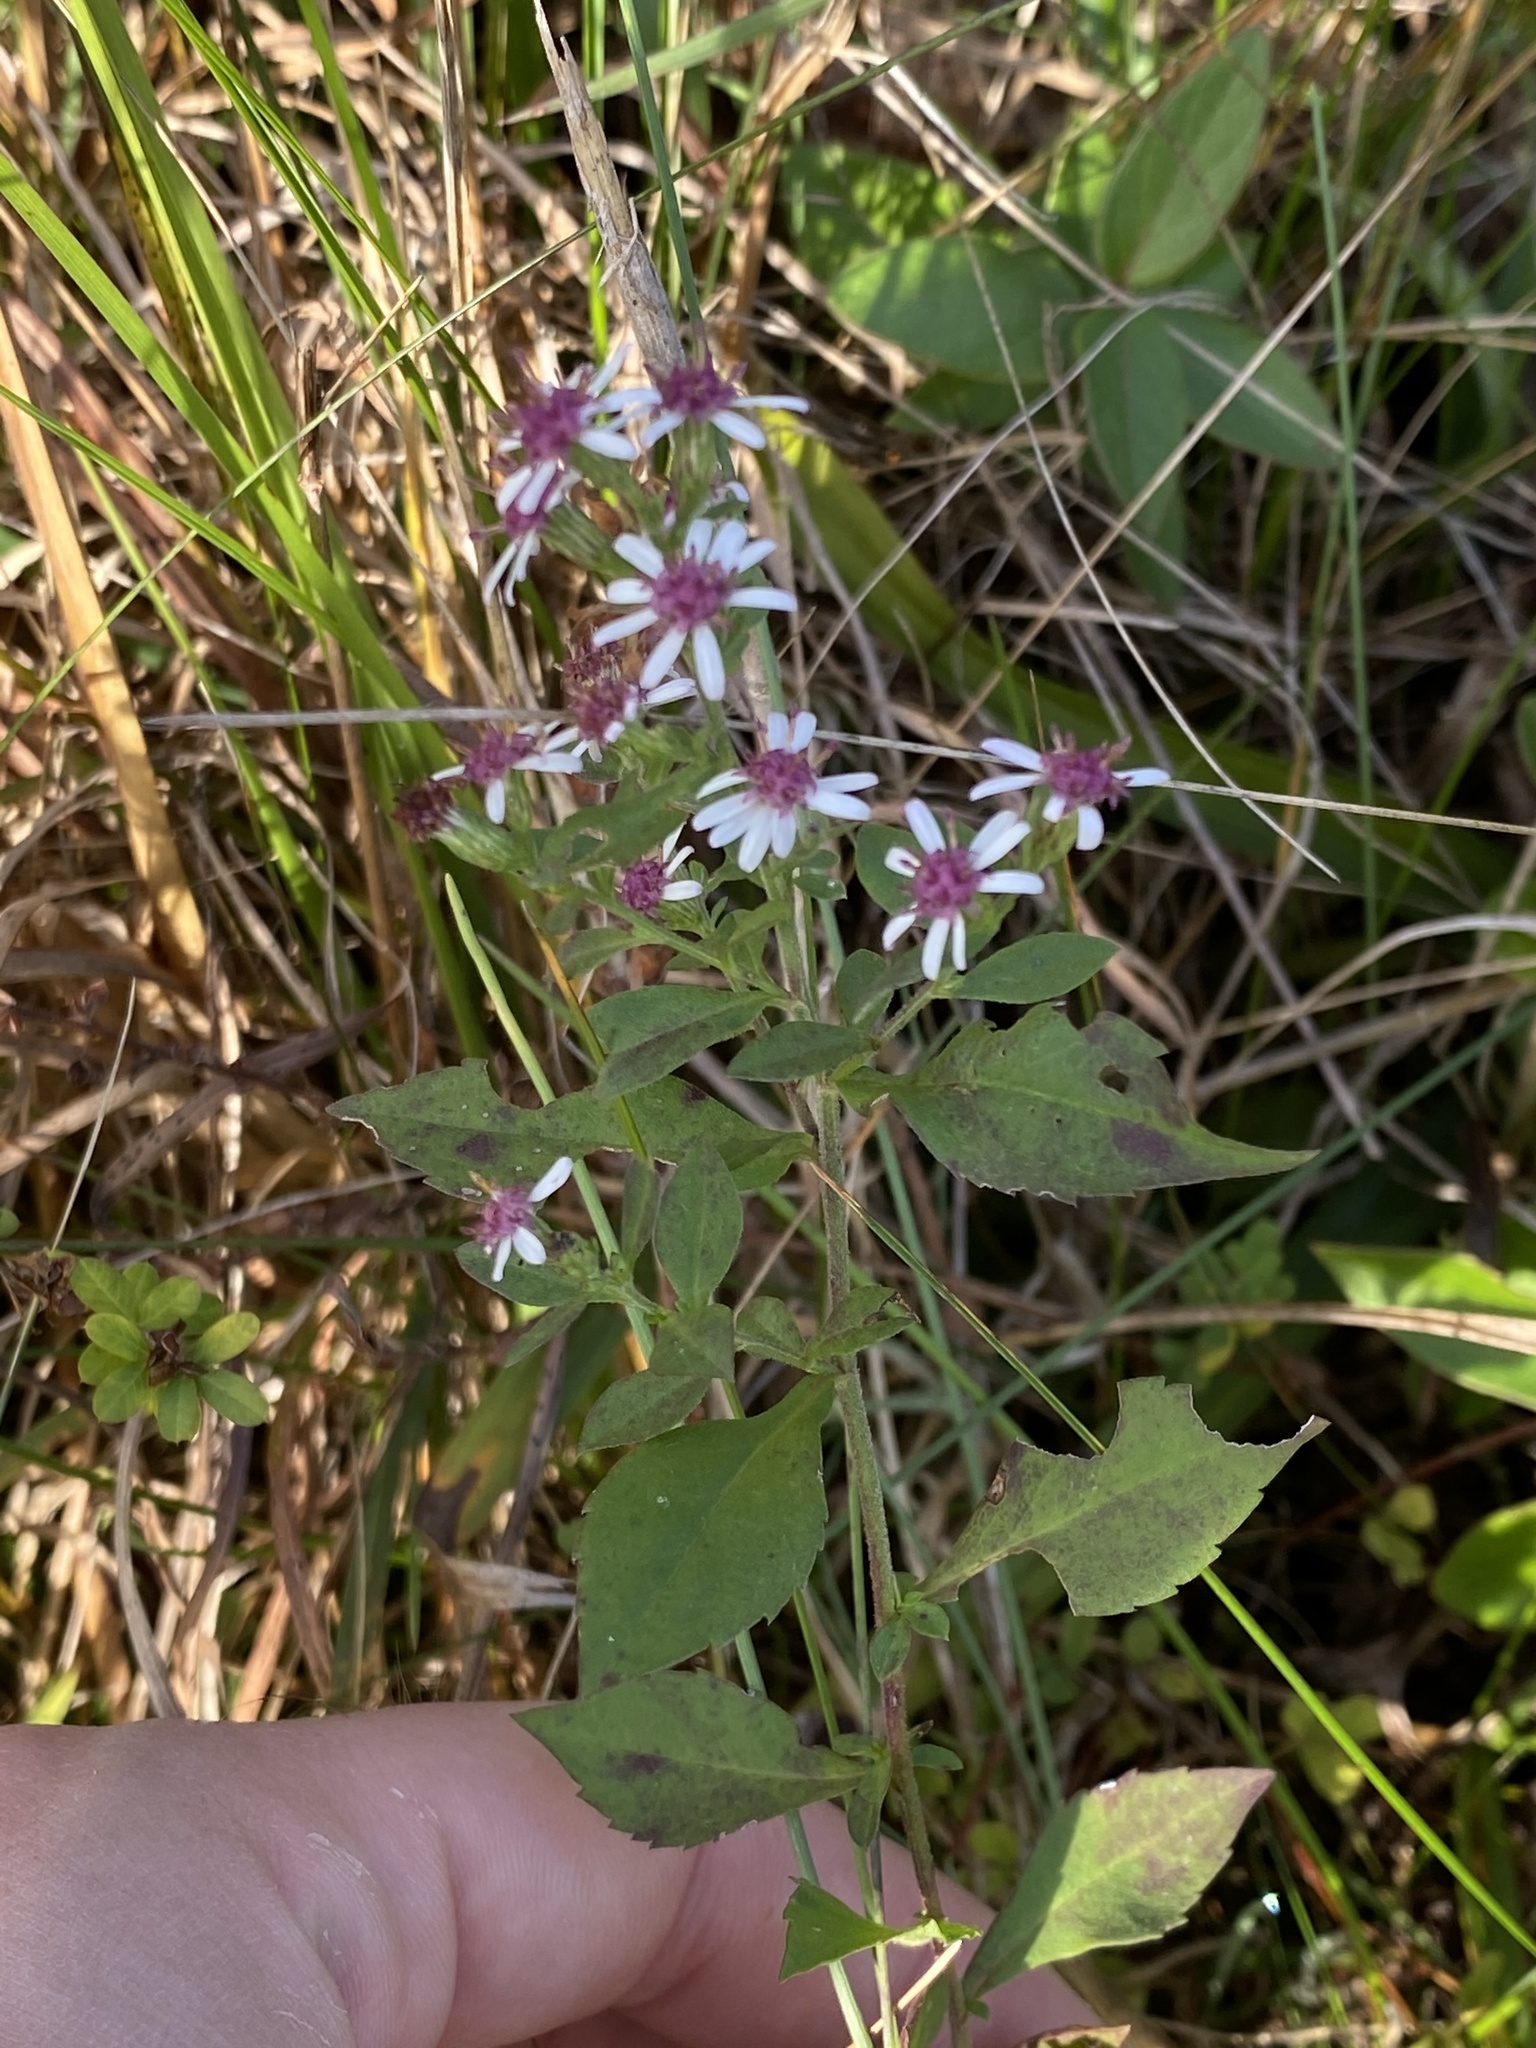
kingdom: Plantae
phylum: Tracheophyta
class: Magnoliopsida
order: Asterales
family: Asteraceae
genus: Symphyotrichum
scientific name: Symphyotrichum lateriflorum
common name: Calico aster
